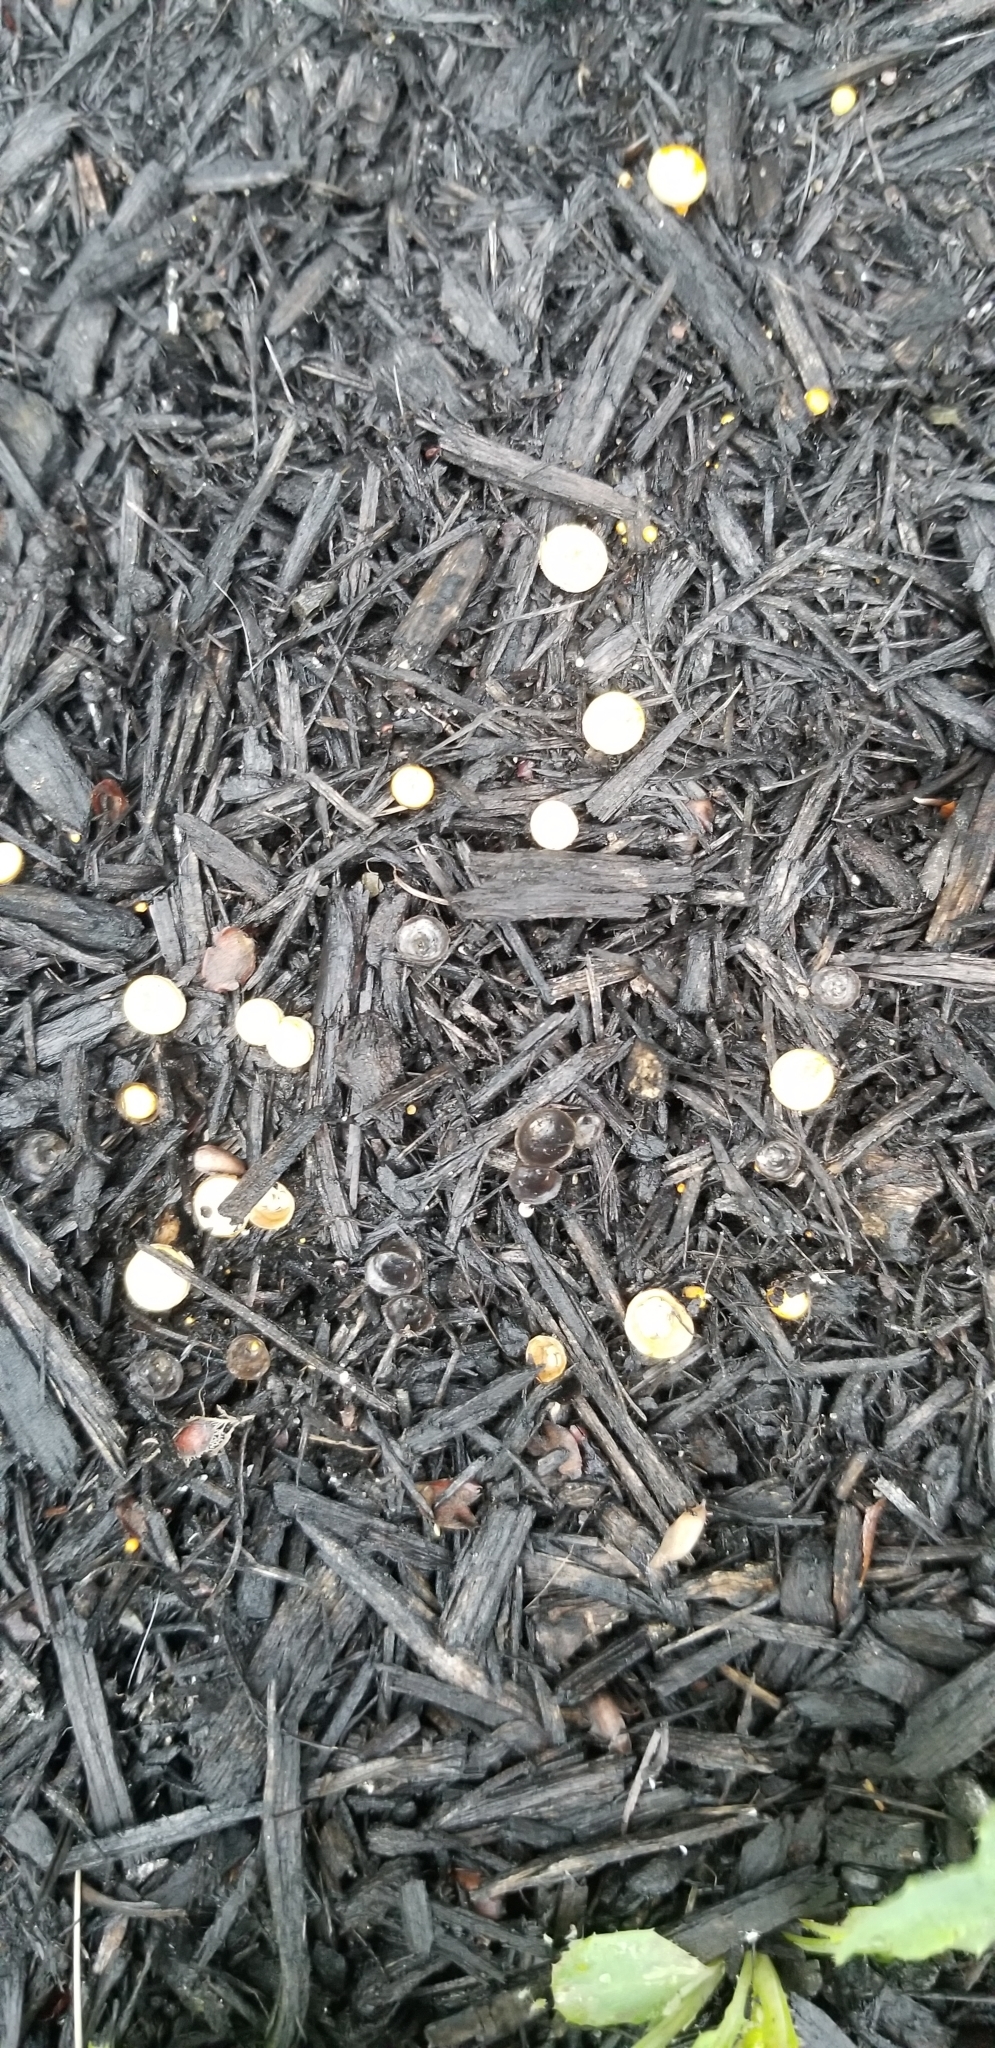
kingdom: Fungi
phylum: Basidiomycota
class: Agaricomycetes
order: Agaricales
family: Nidulariaceae
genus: Crucibulum
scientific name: Crucibulum laeve
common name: Common bird's nest
